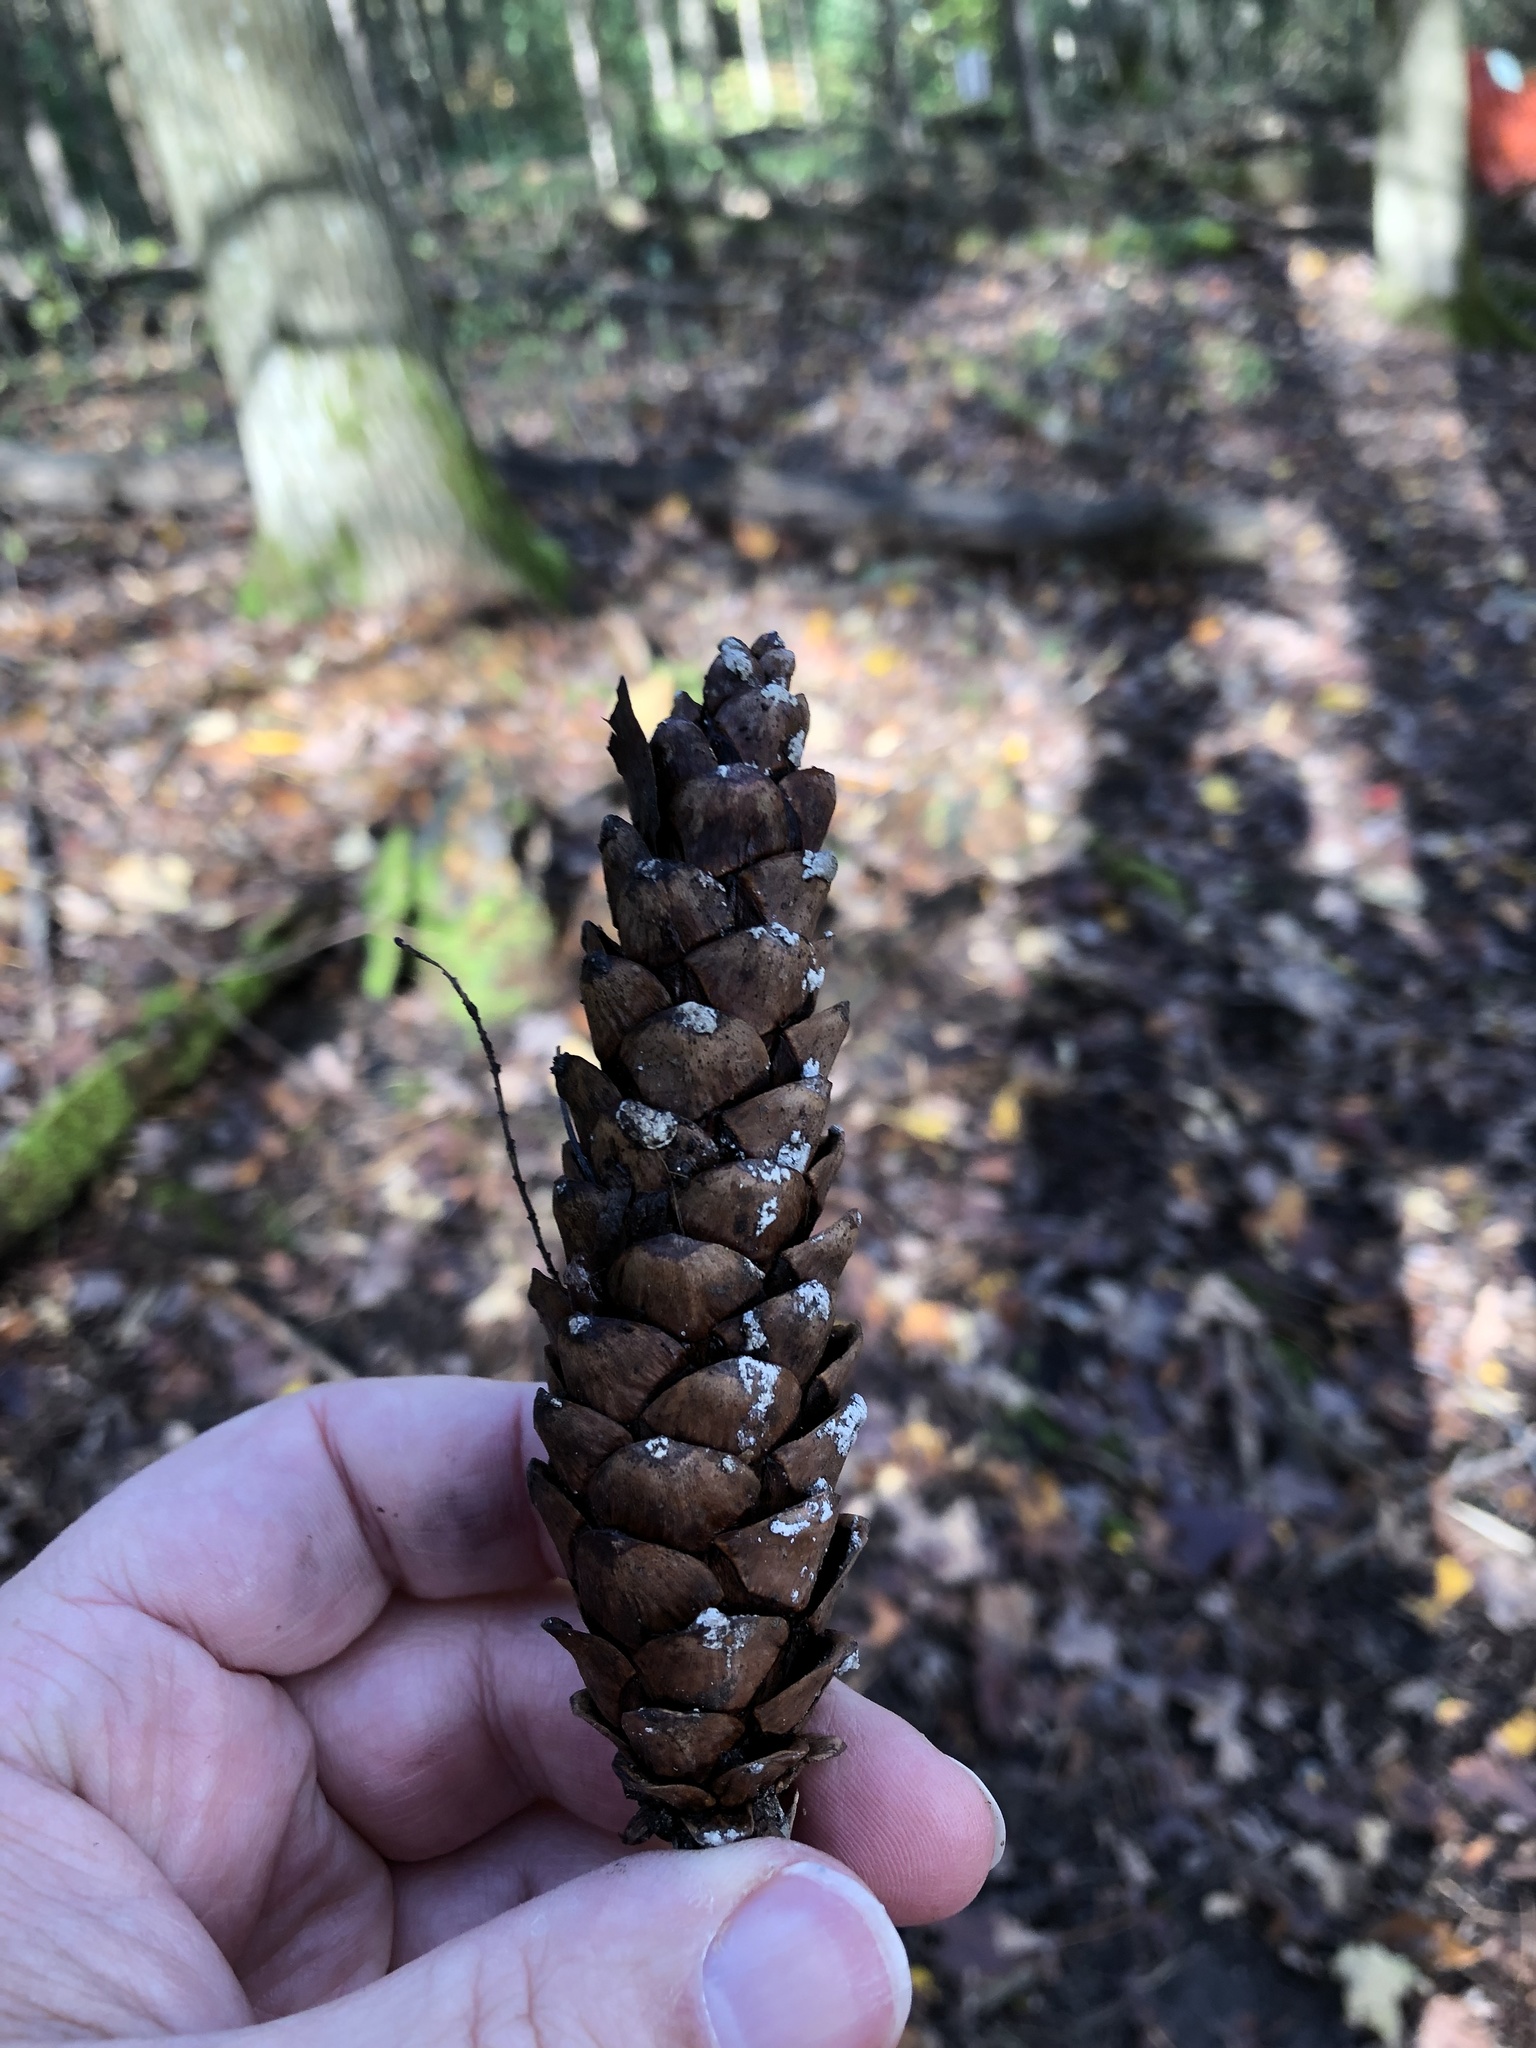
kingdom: Plantae
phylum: Tracheophyta
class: Pinopsida
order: Pinales
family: Pinaceae
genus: Pinus
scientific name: Pinus strobus
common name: Weymouth pine
